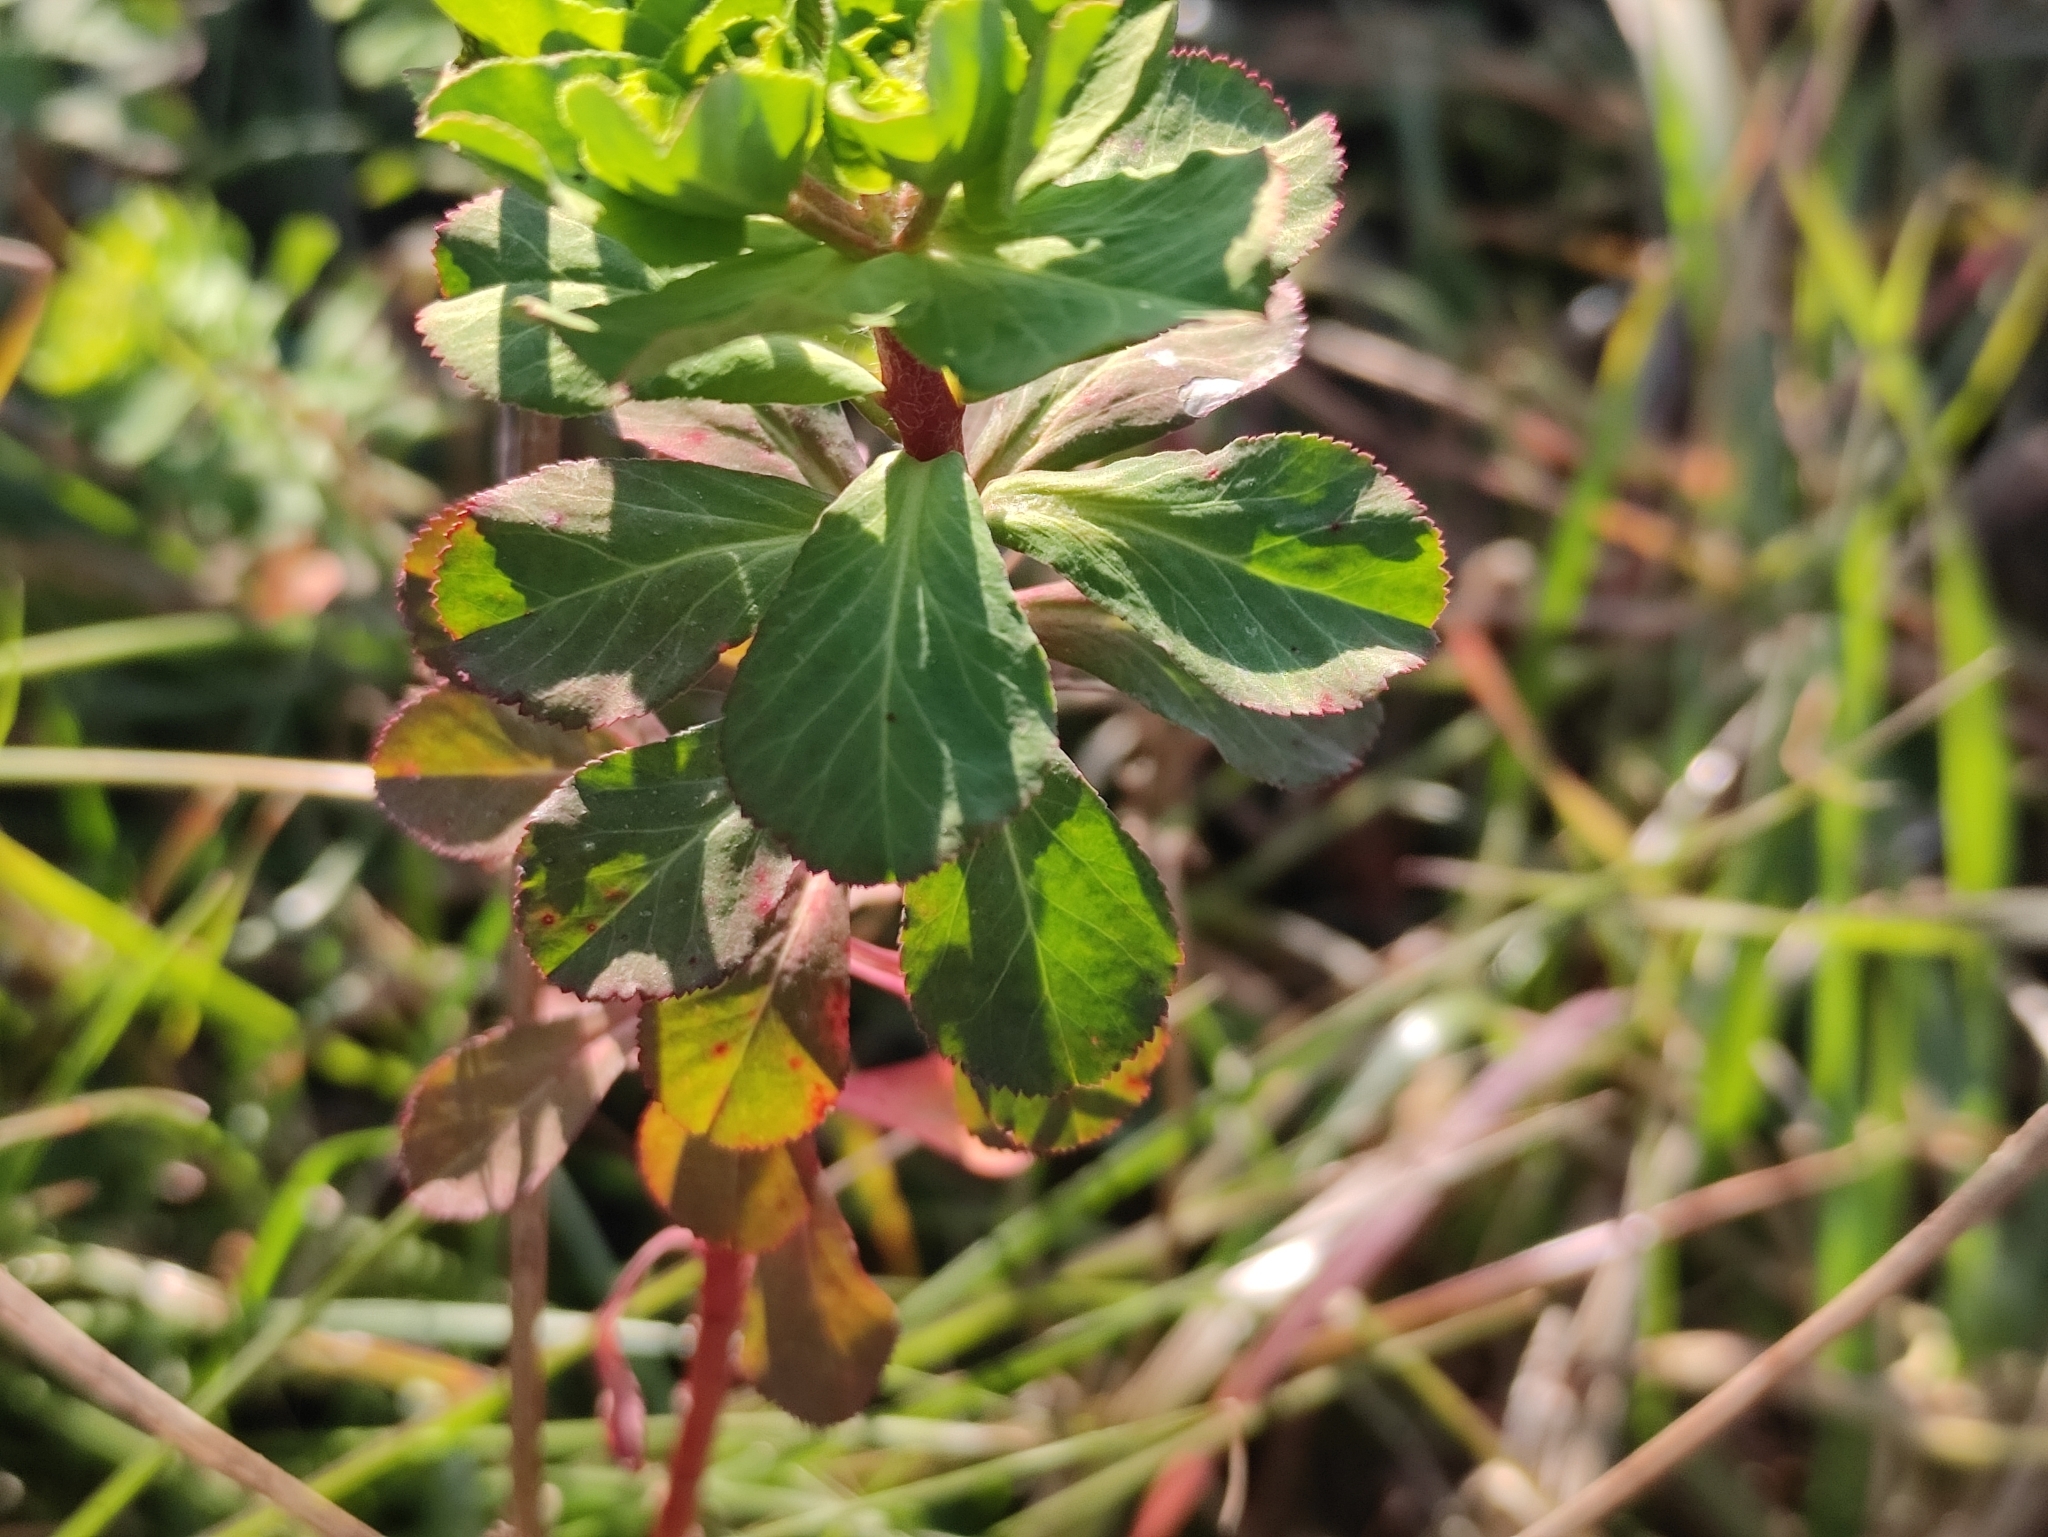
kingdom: Plantae
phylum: Tracheophyta
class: Magnoliopsida
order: Malpighiales
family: Euphorbiaceae
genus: Euphorbia
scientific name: Euphorbia helioscopia
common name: Sun spurge
